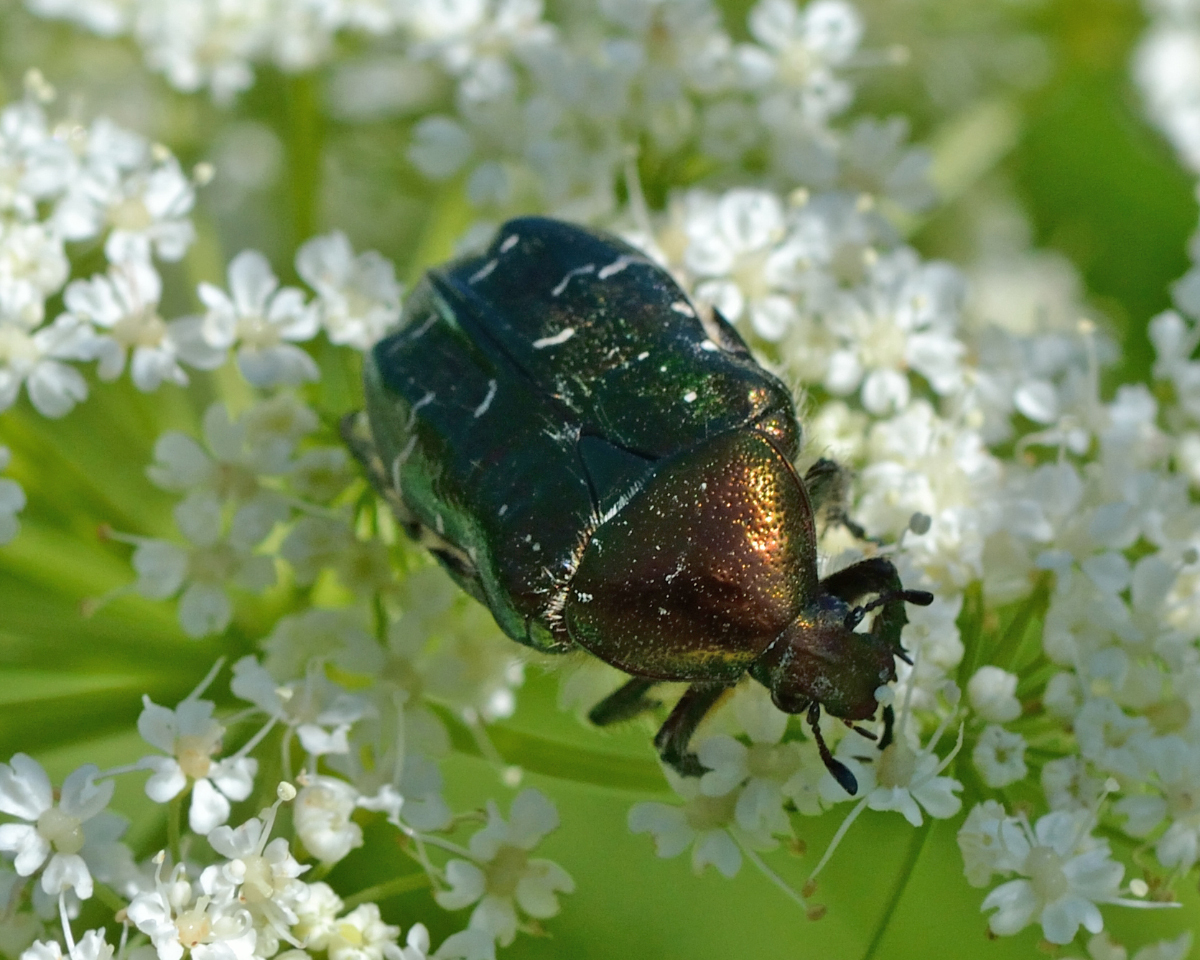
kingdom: Animalia
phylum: Arthropoda
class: Insecta
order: Coleoptera
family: Scarabaeidae
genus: Cetonia
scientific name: Cetonia aurata
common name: Rose chafer
